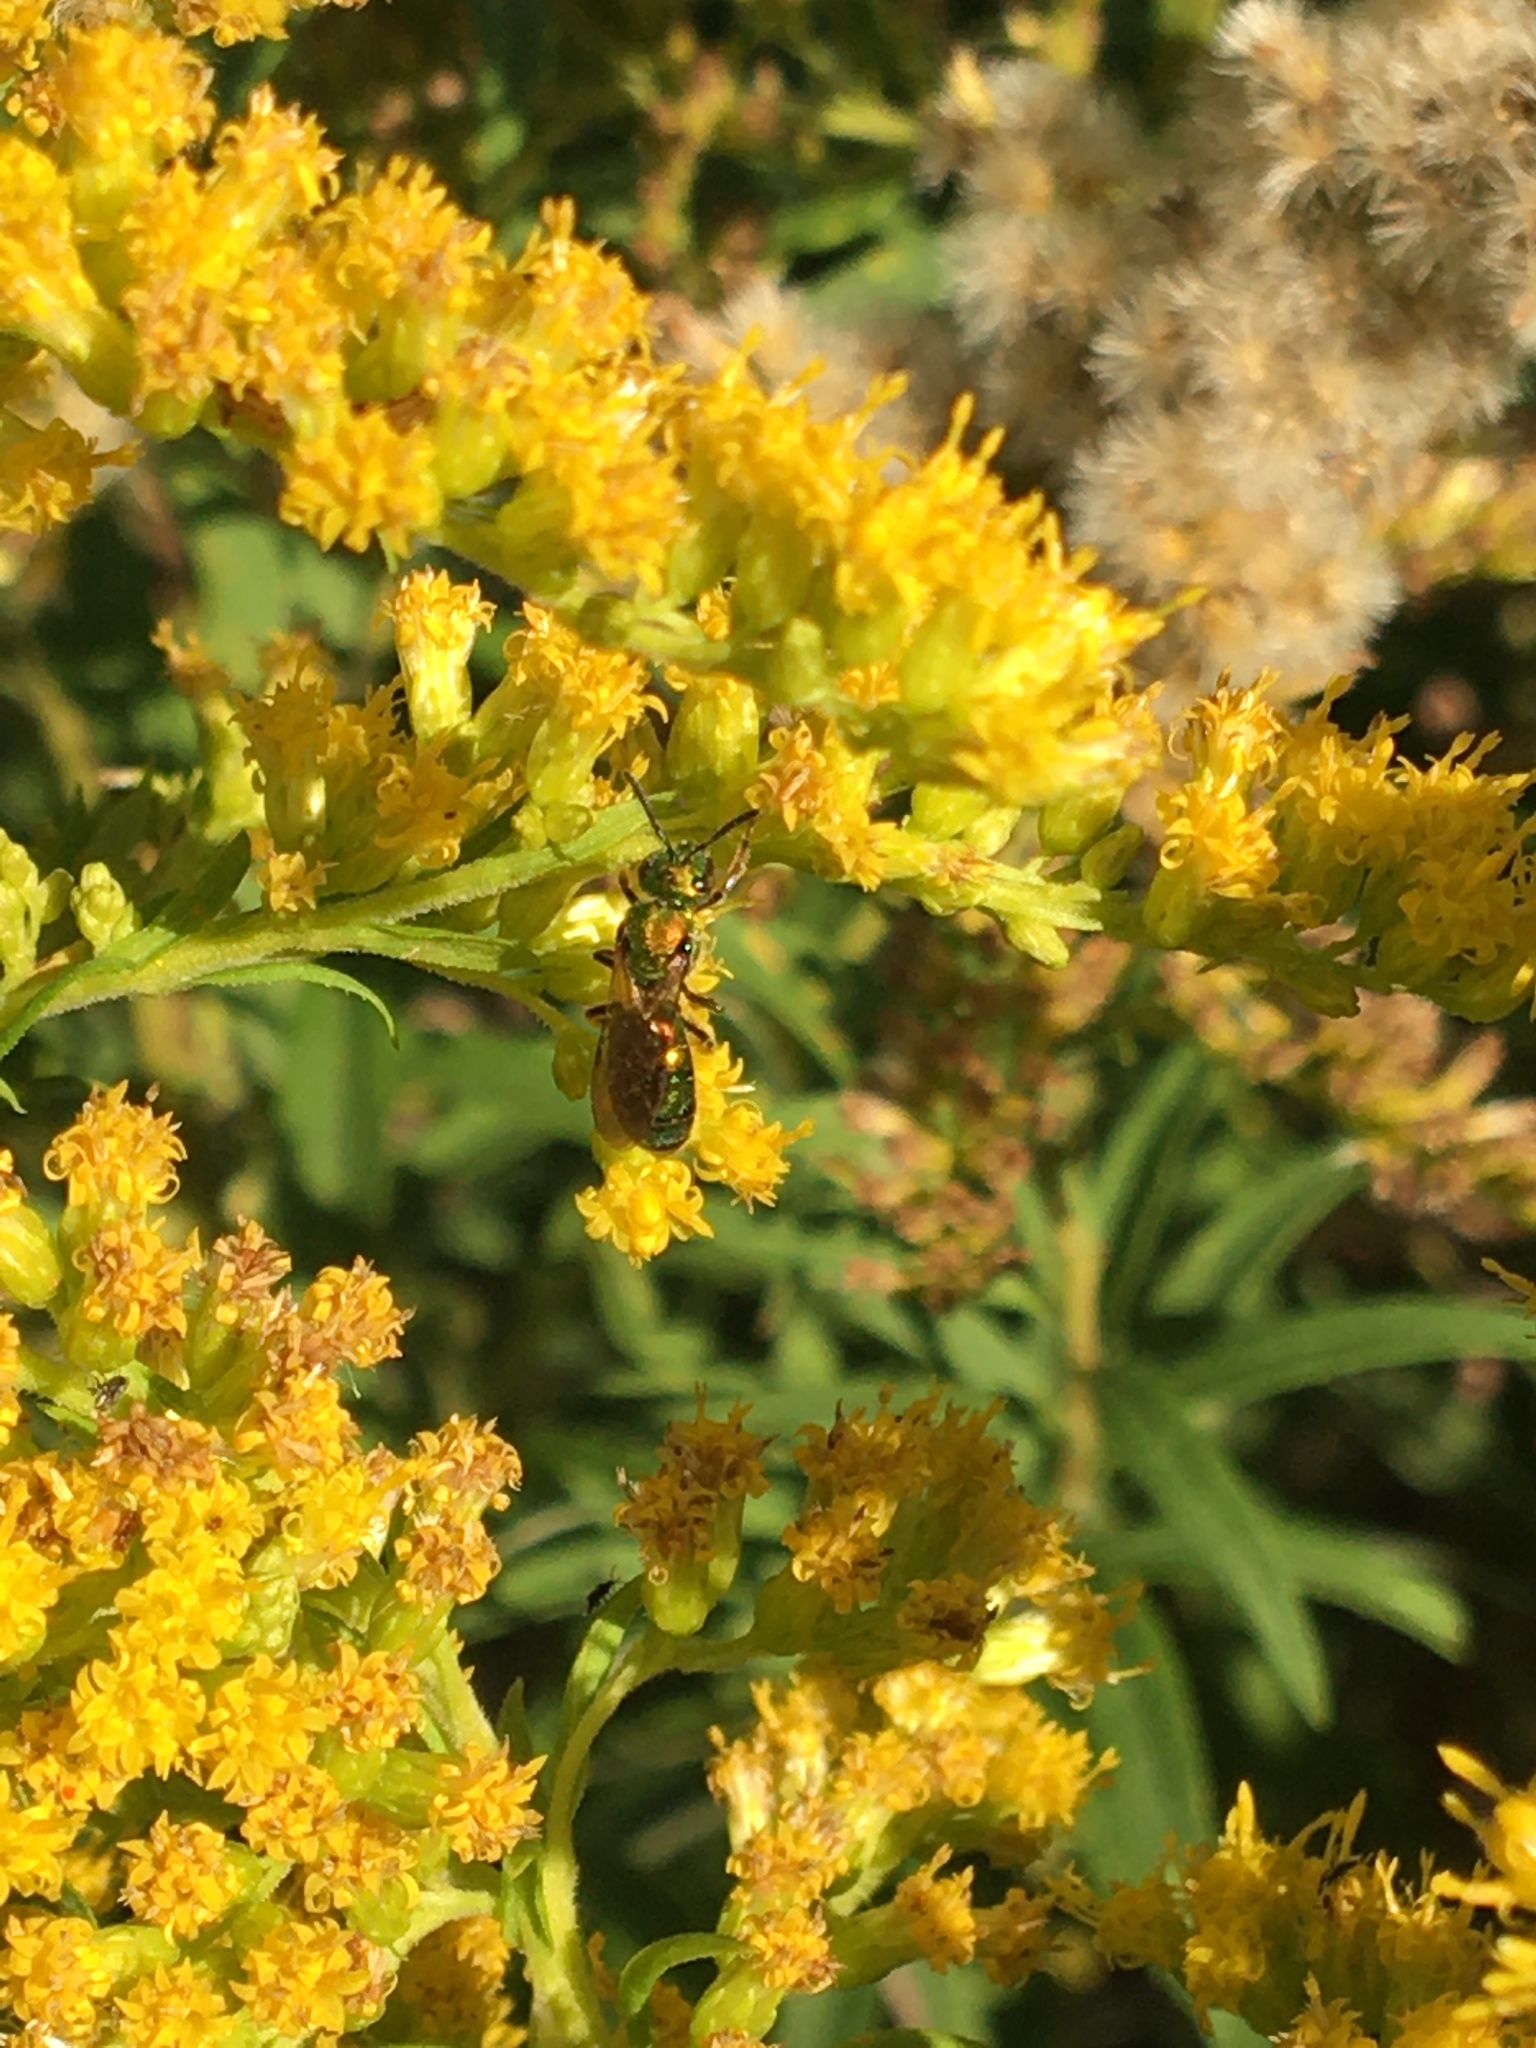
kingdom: Animalia
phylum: Arthropoda
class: Insecta
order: Hymenoptera
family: Halictidae
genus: Augochlora
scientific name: Augochlora pura
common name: Pure green sweat bee
